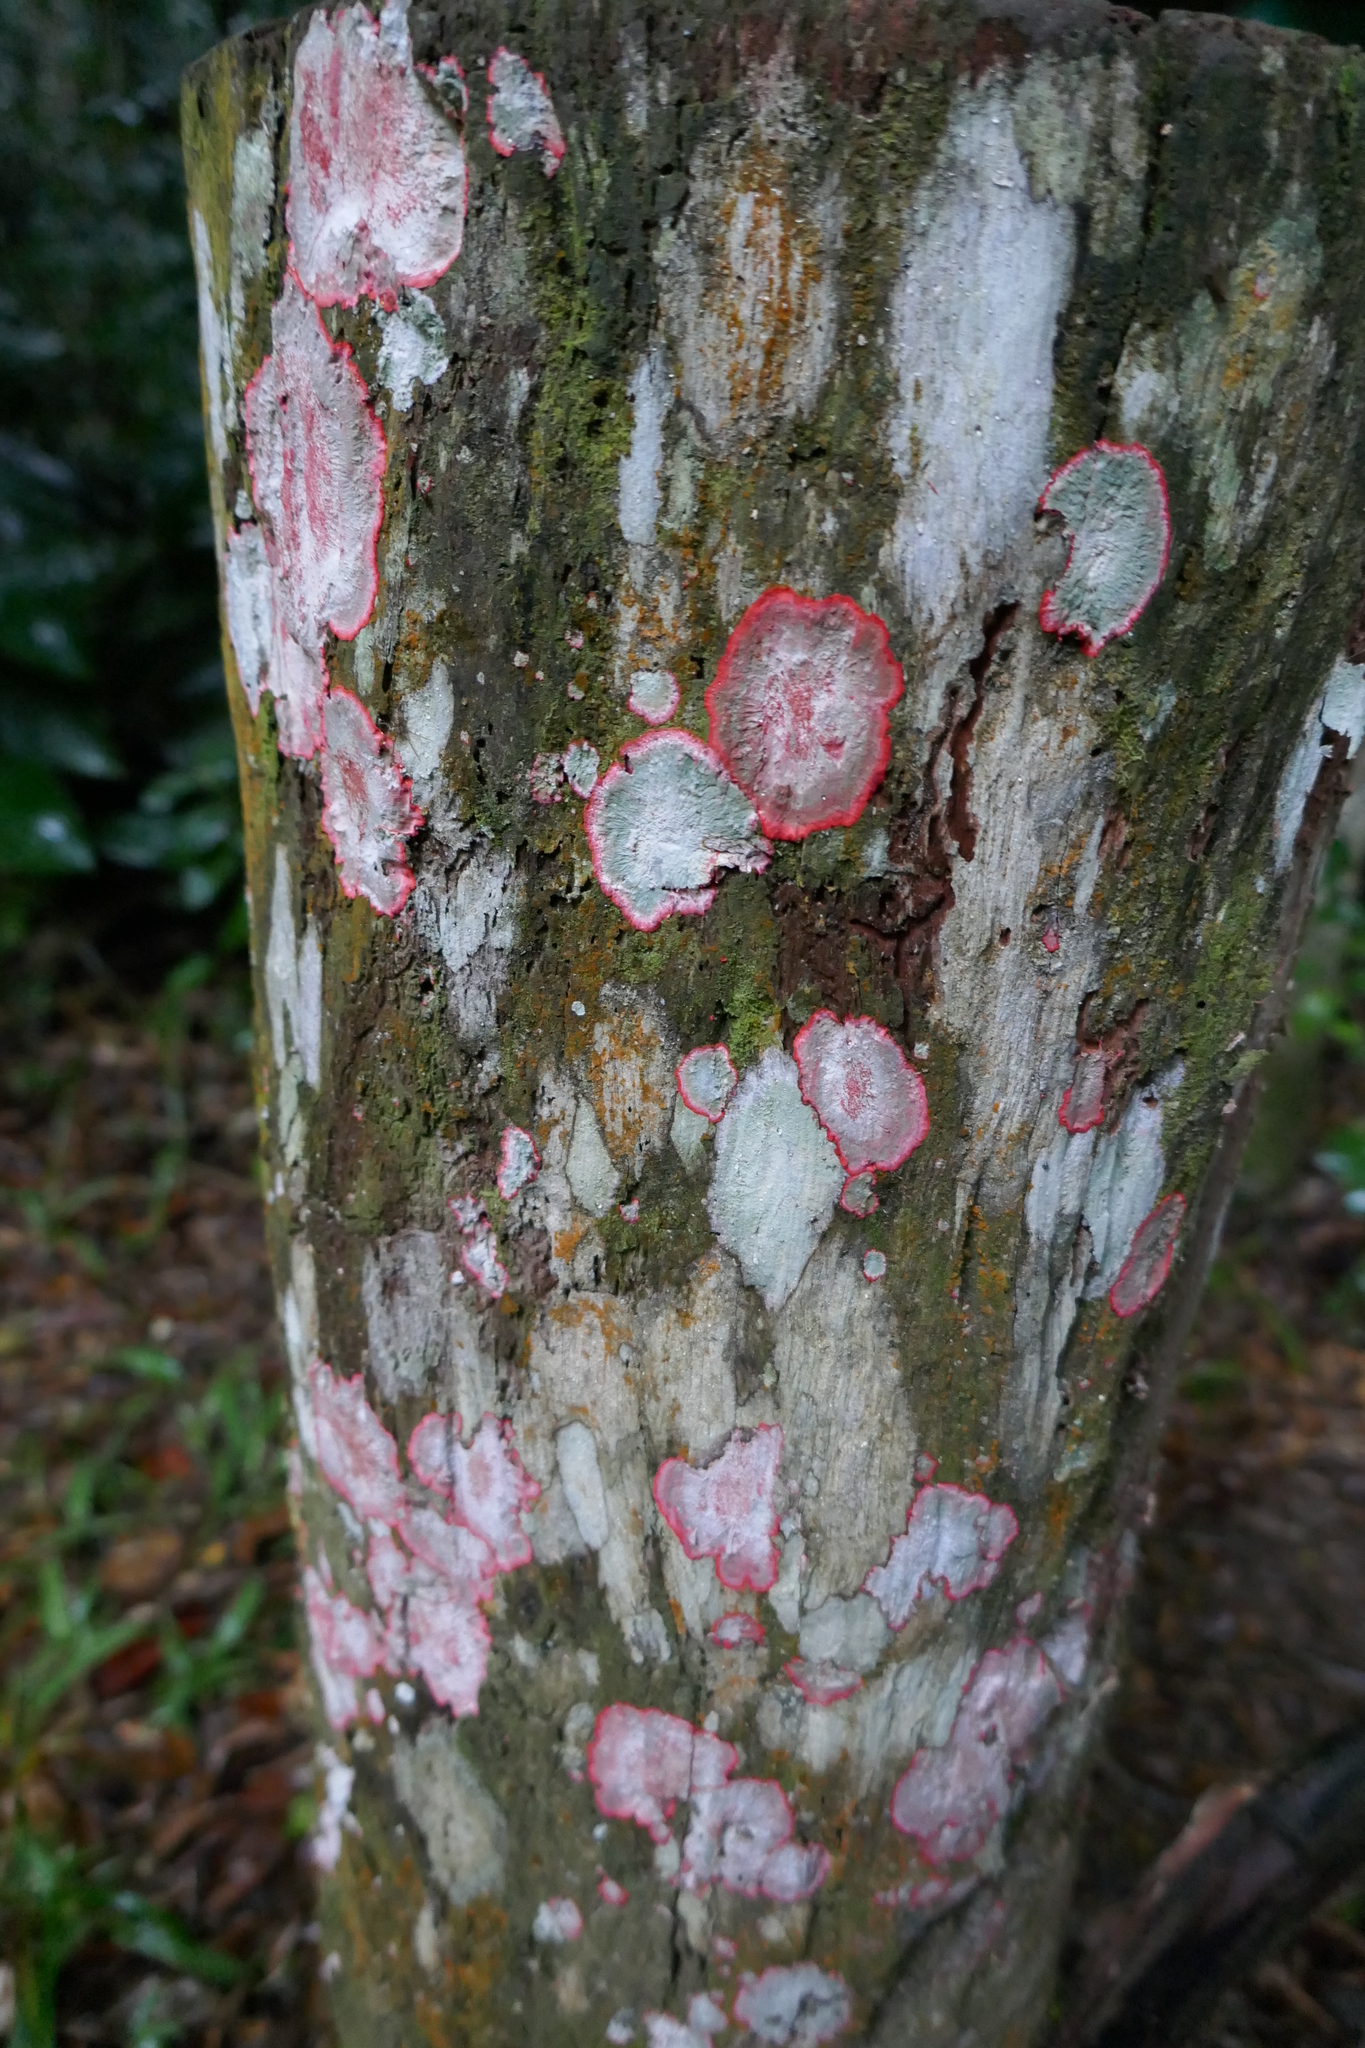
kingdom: Fungi
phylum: Ascomycota
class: Arthoniomycetes
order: Arthoniales
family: Arthoniaceae
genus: Herpothallon
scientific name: Herpothallon rubrocinctum
